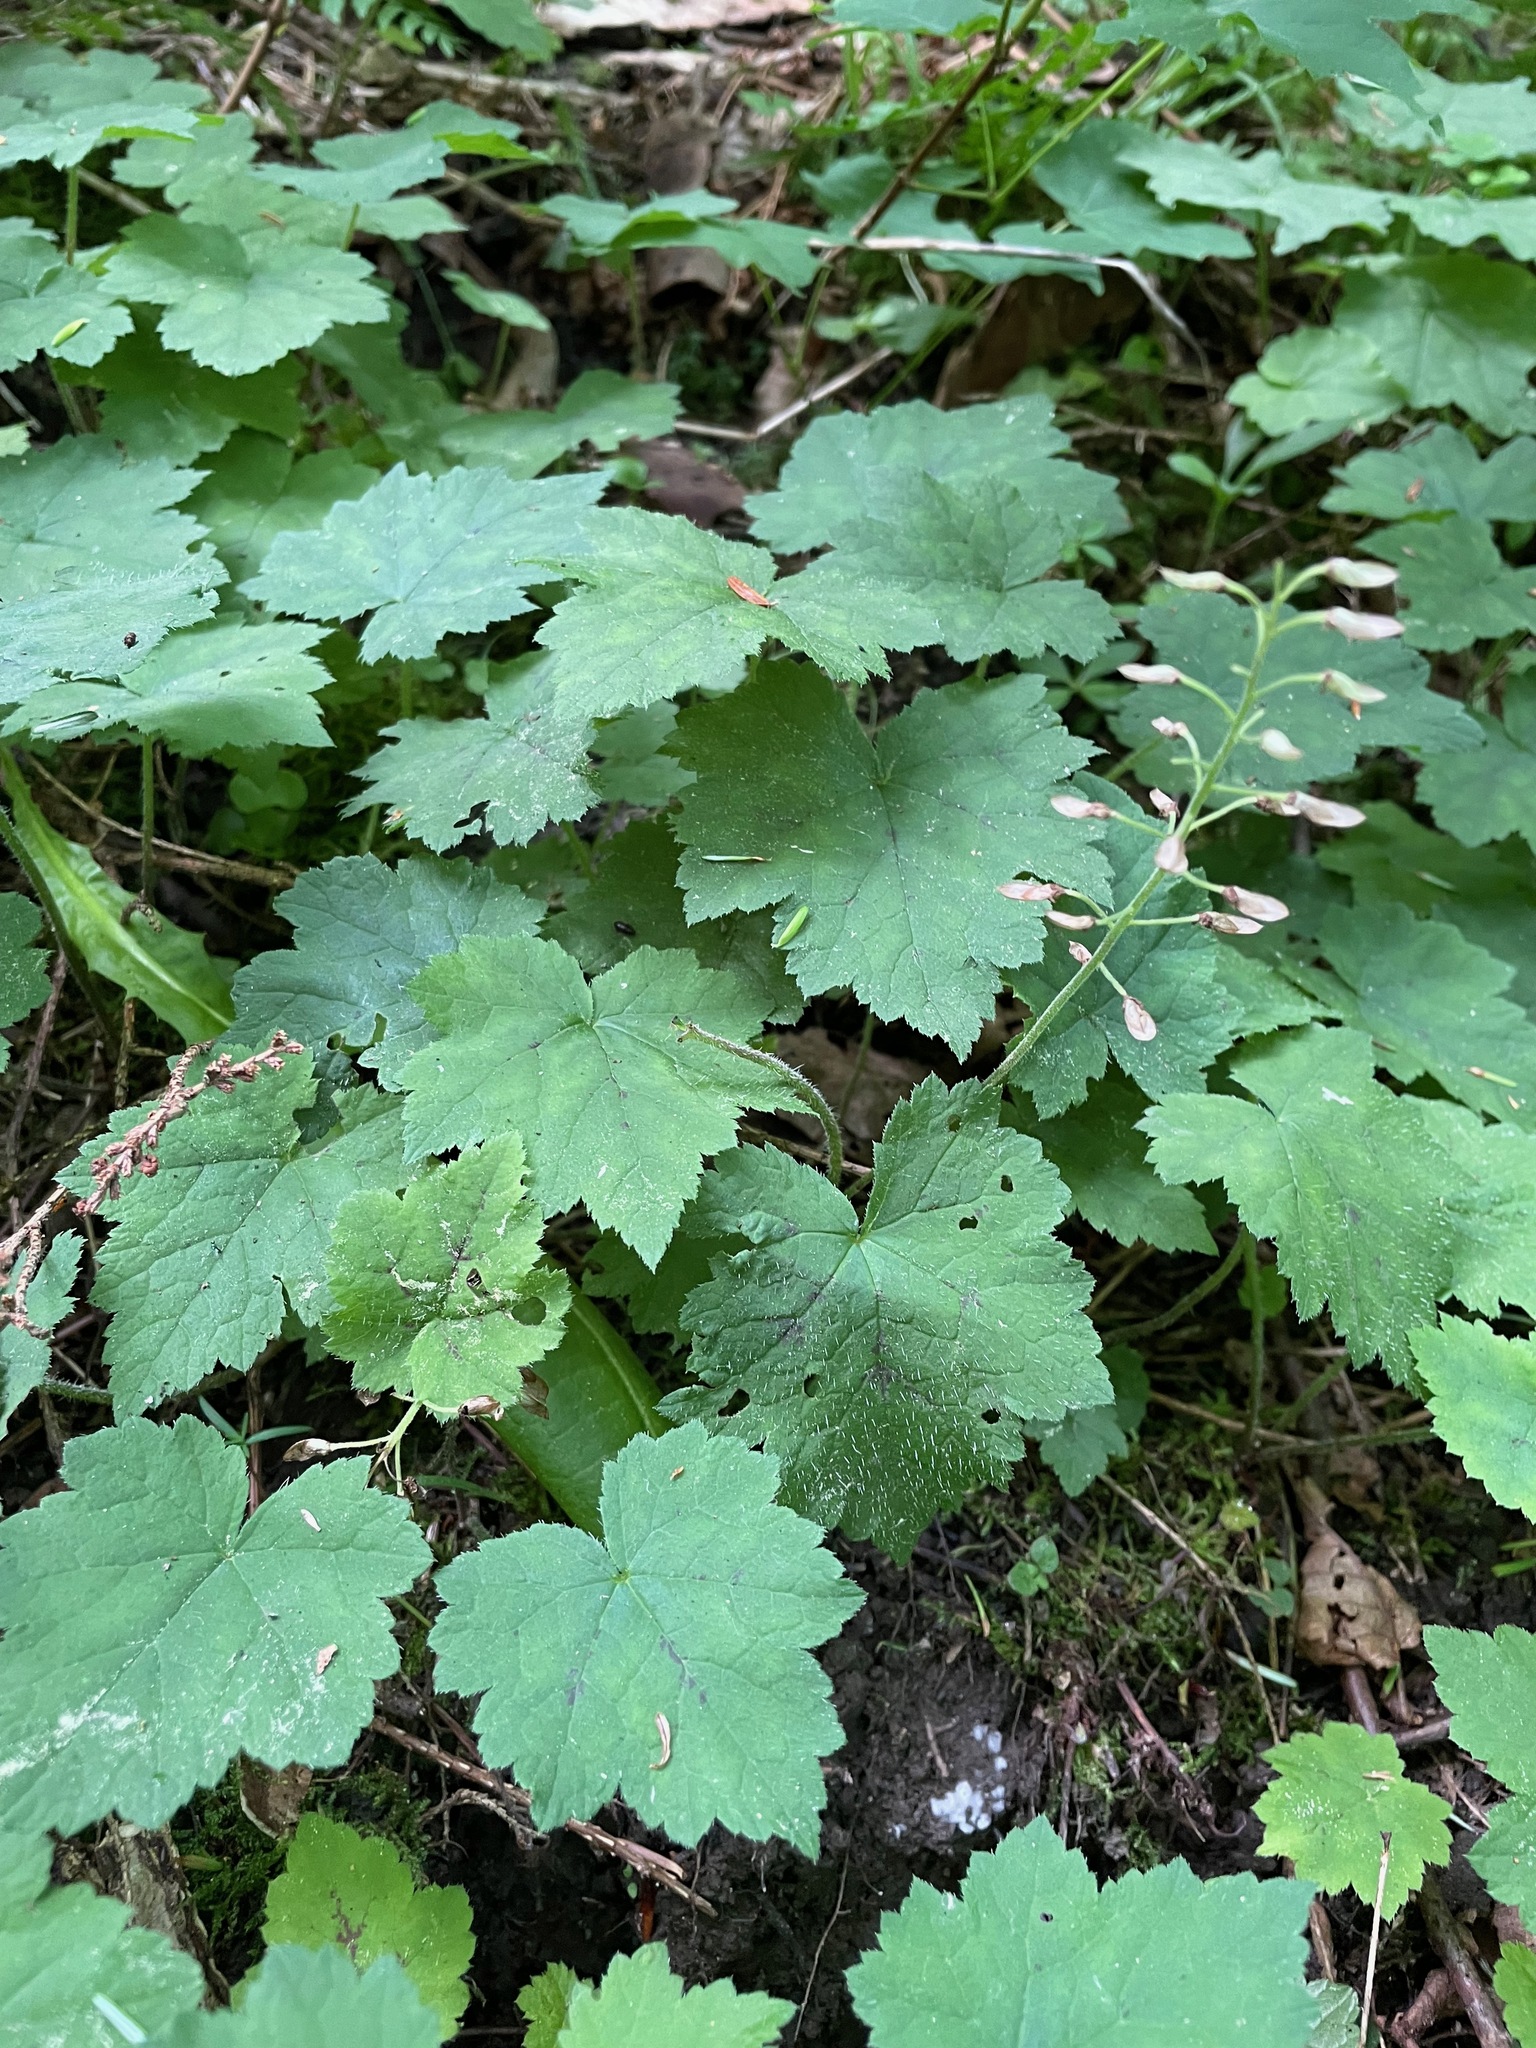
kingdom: Plantae
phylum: Tracheophyta
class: Magnoliopsida
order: Saxifragales
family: Saxifragaceae
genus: Tiarella
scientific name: Tiarella stolonifera
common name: Stoloniferous foamflower
